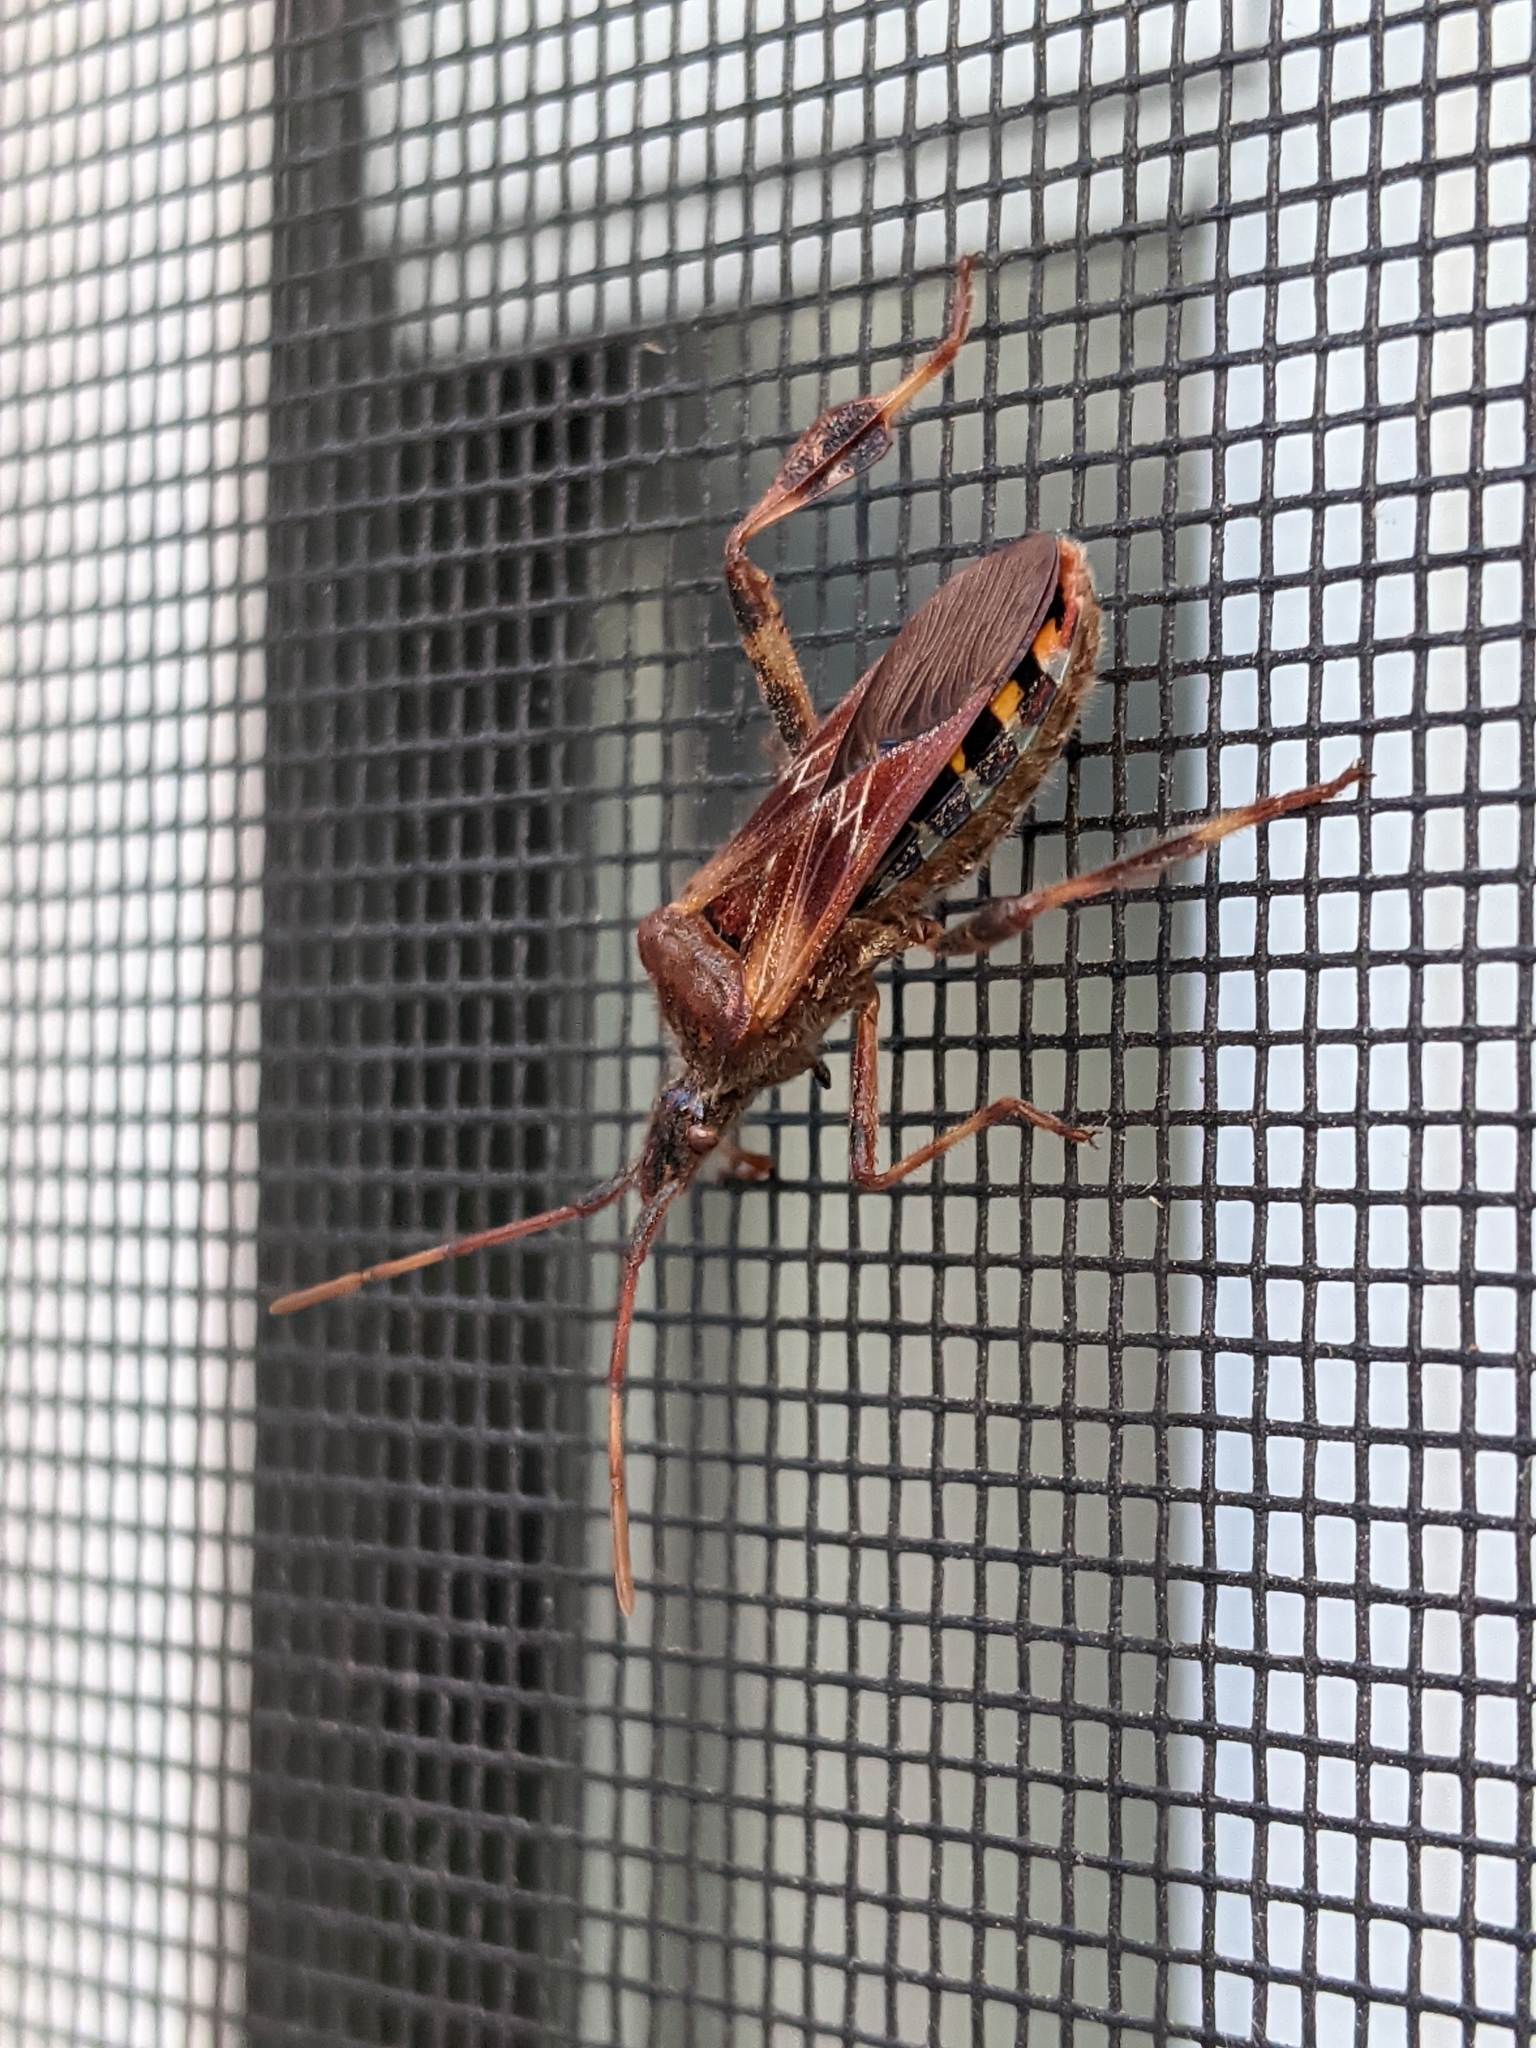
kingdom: Animalia
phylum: Arthropoda
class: Insecta
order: Hemiptera
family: Coreidae
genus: Leptoglossus
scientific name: Leptoglossus occidentalis
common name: Western conifer-seed bug
